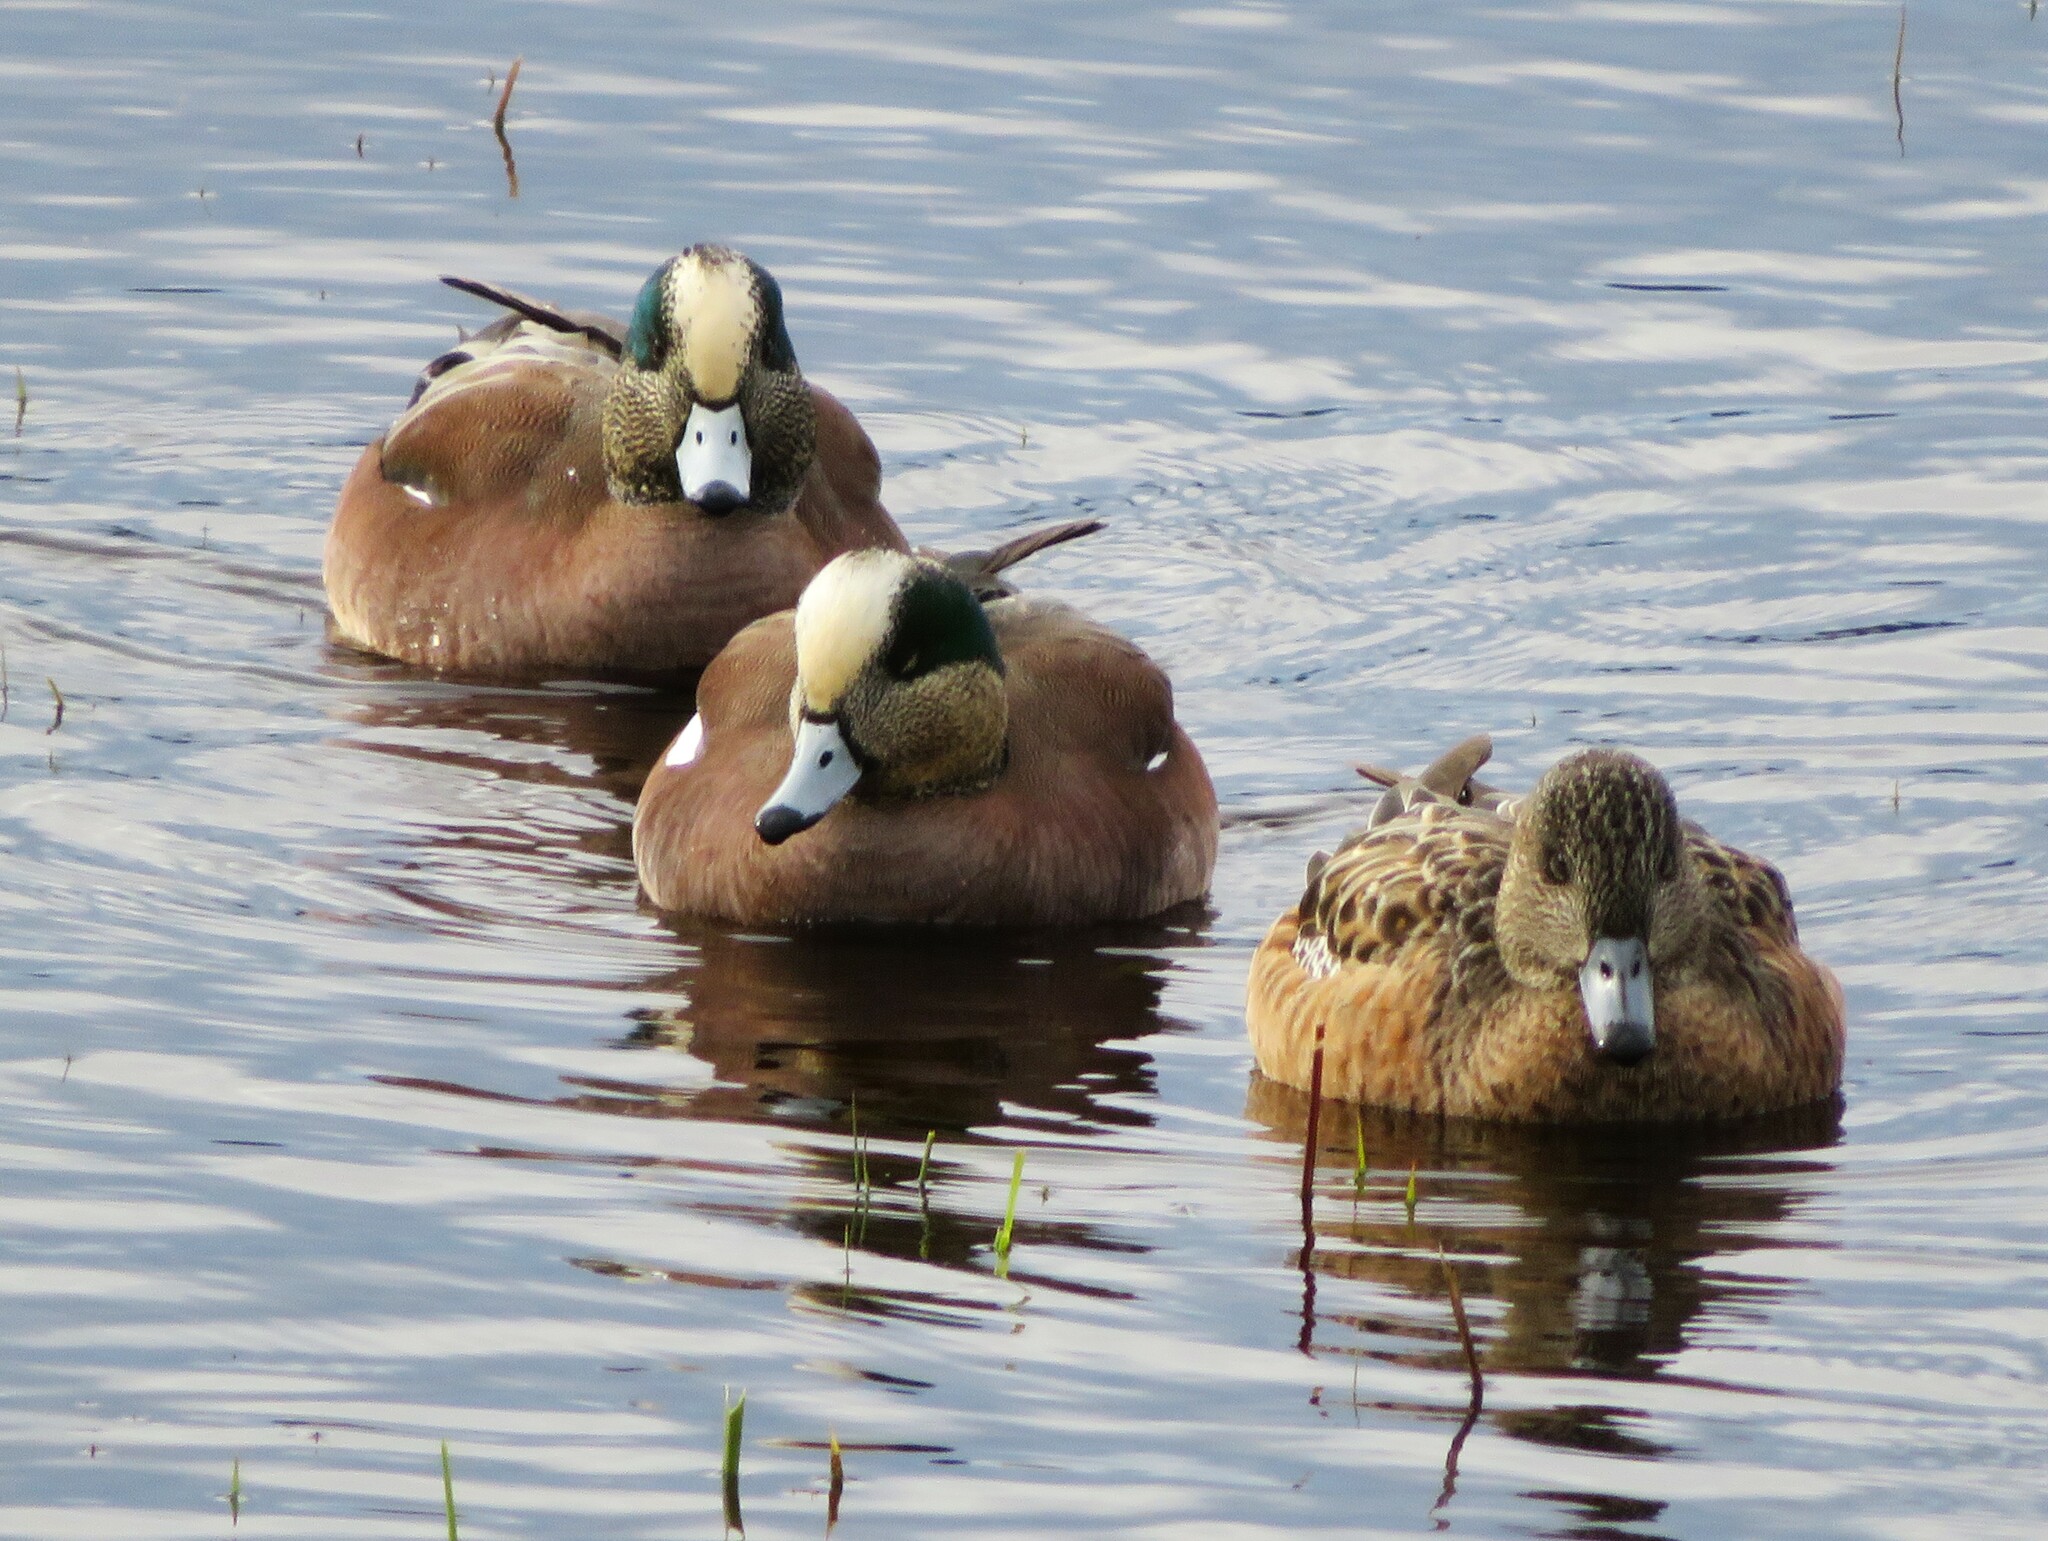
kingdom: Animalia
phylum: Chordata
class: Aves
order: Anseriformes
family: Anatidae
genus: Mareca
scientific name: Mareca americana
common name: American wigeon
